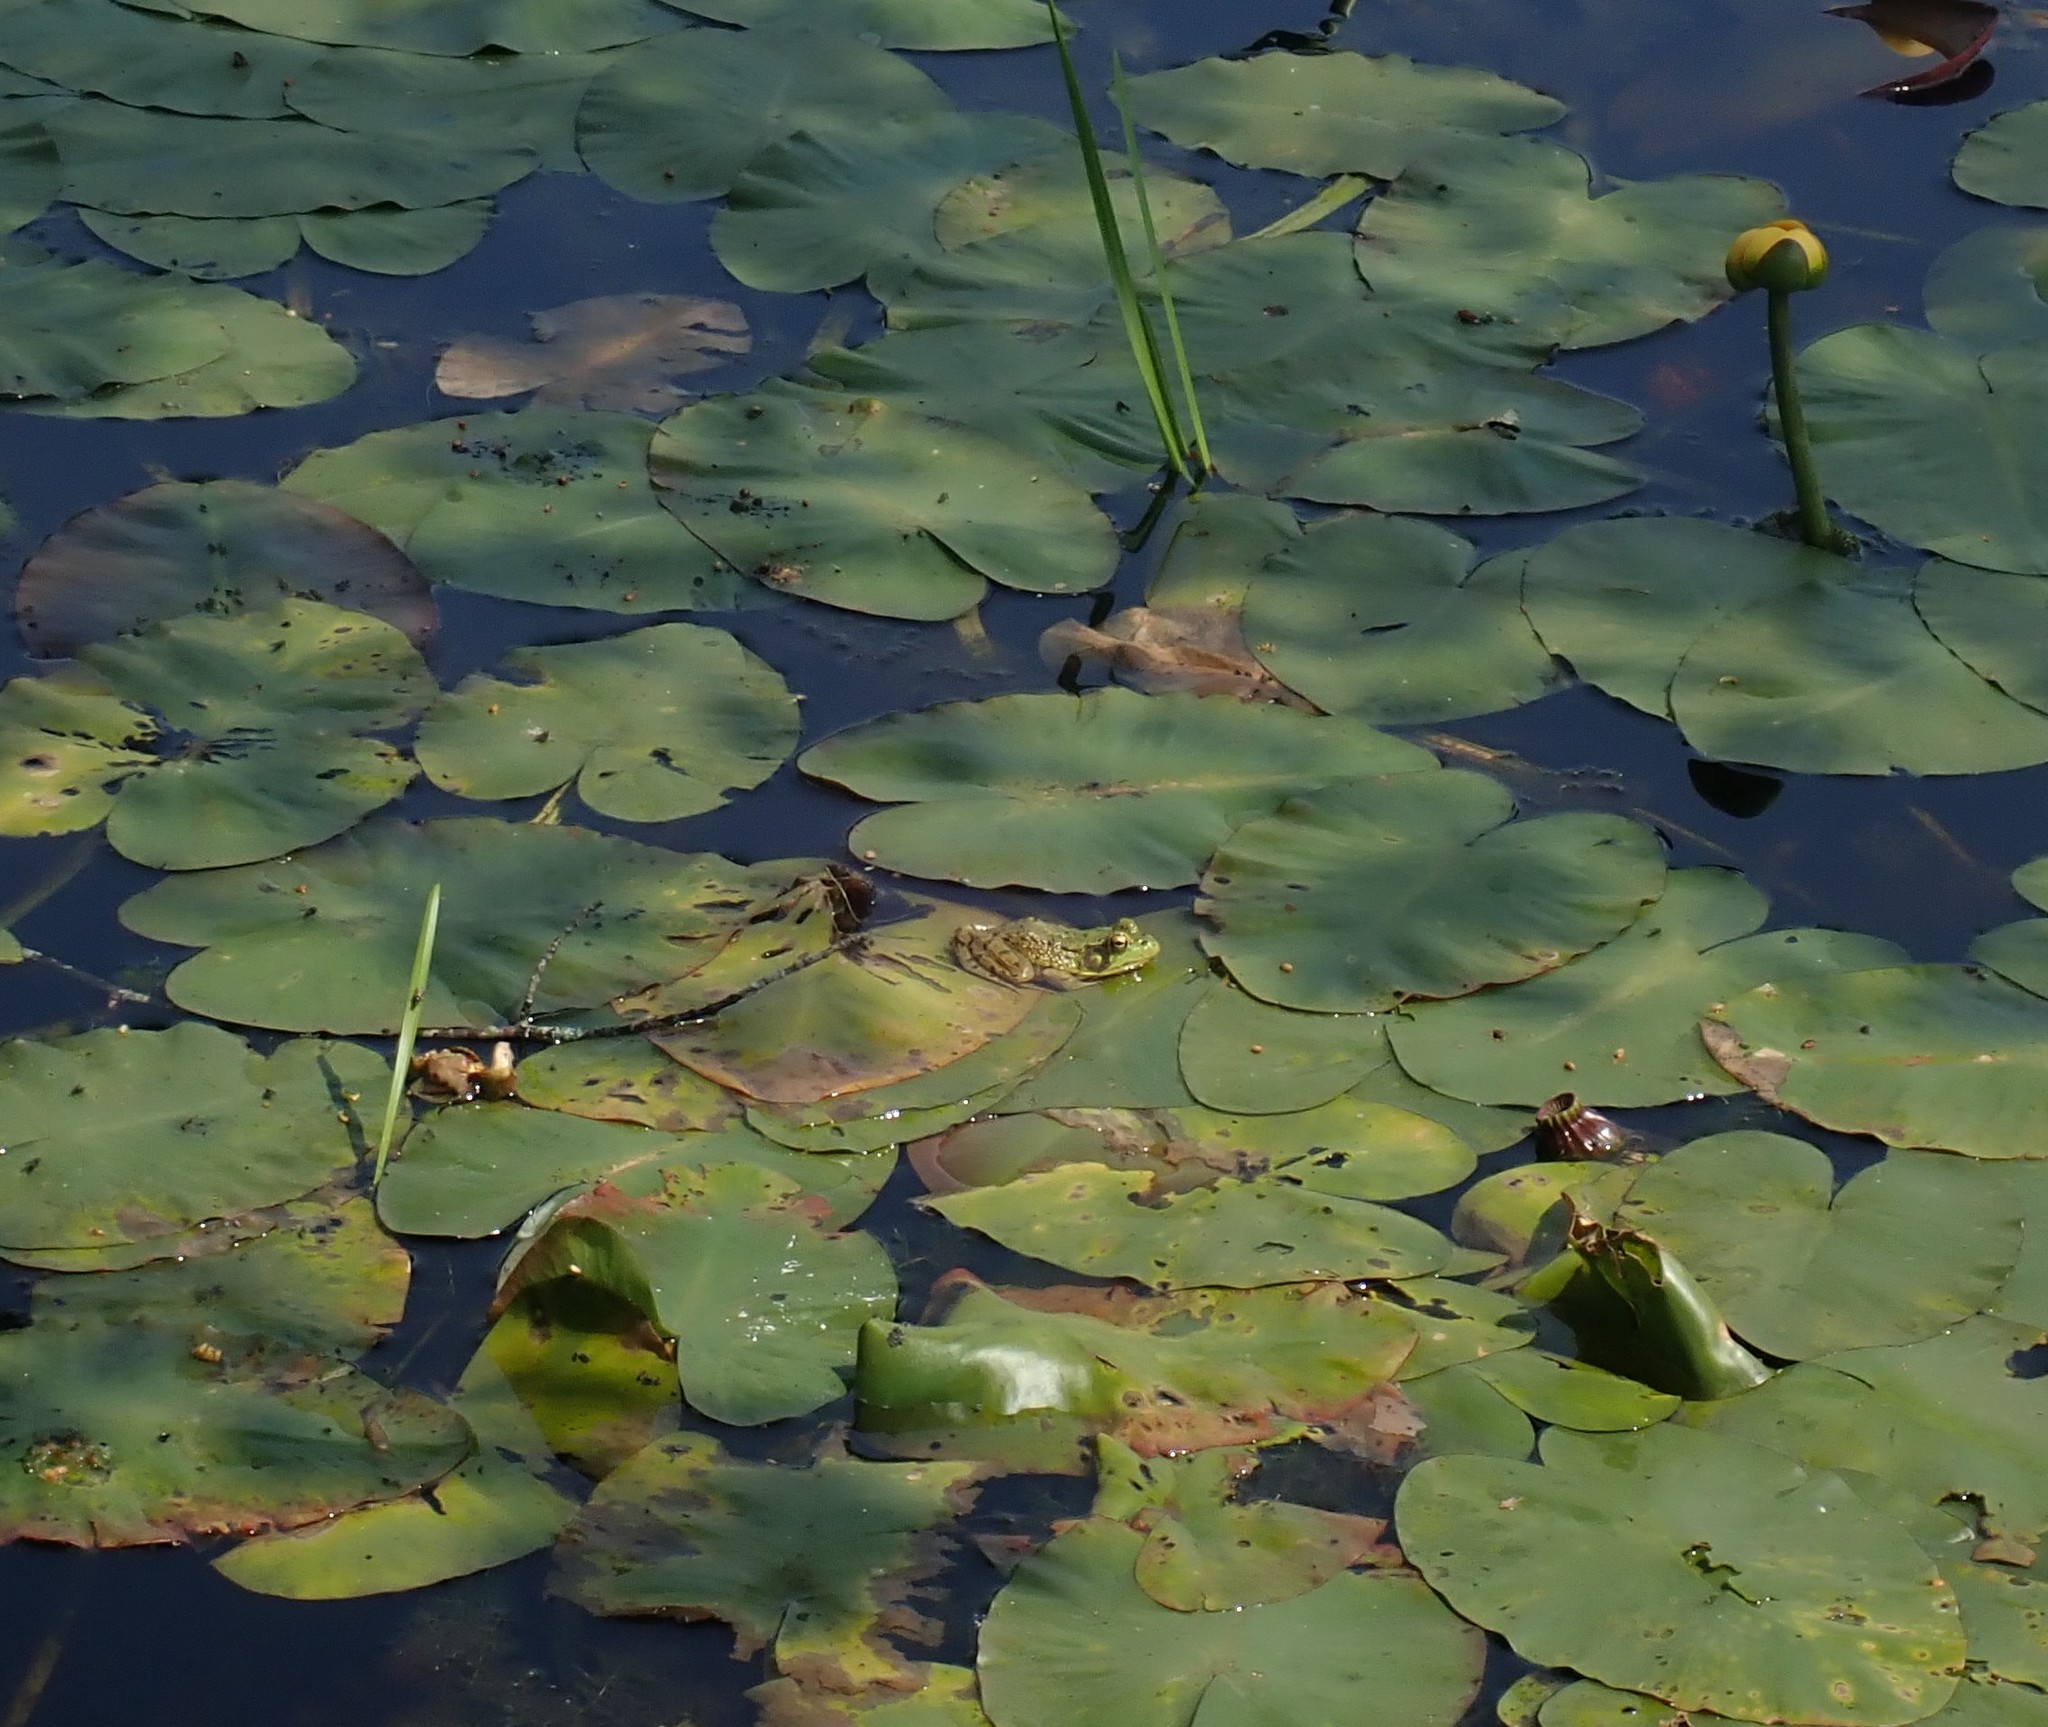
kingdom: Animalia
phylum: Chordata
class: Amphibia
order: Anura
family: Ranidae
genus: Lithobates
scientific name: Lithobates clamitans
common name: Green frog
